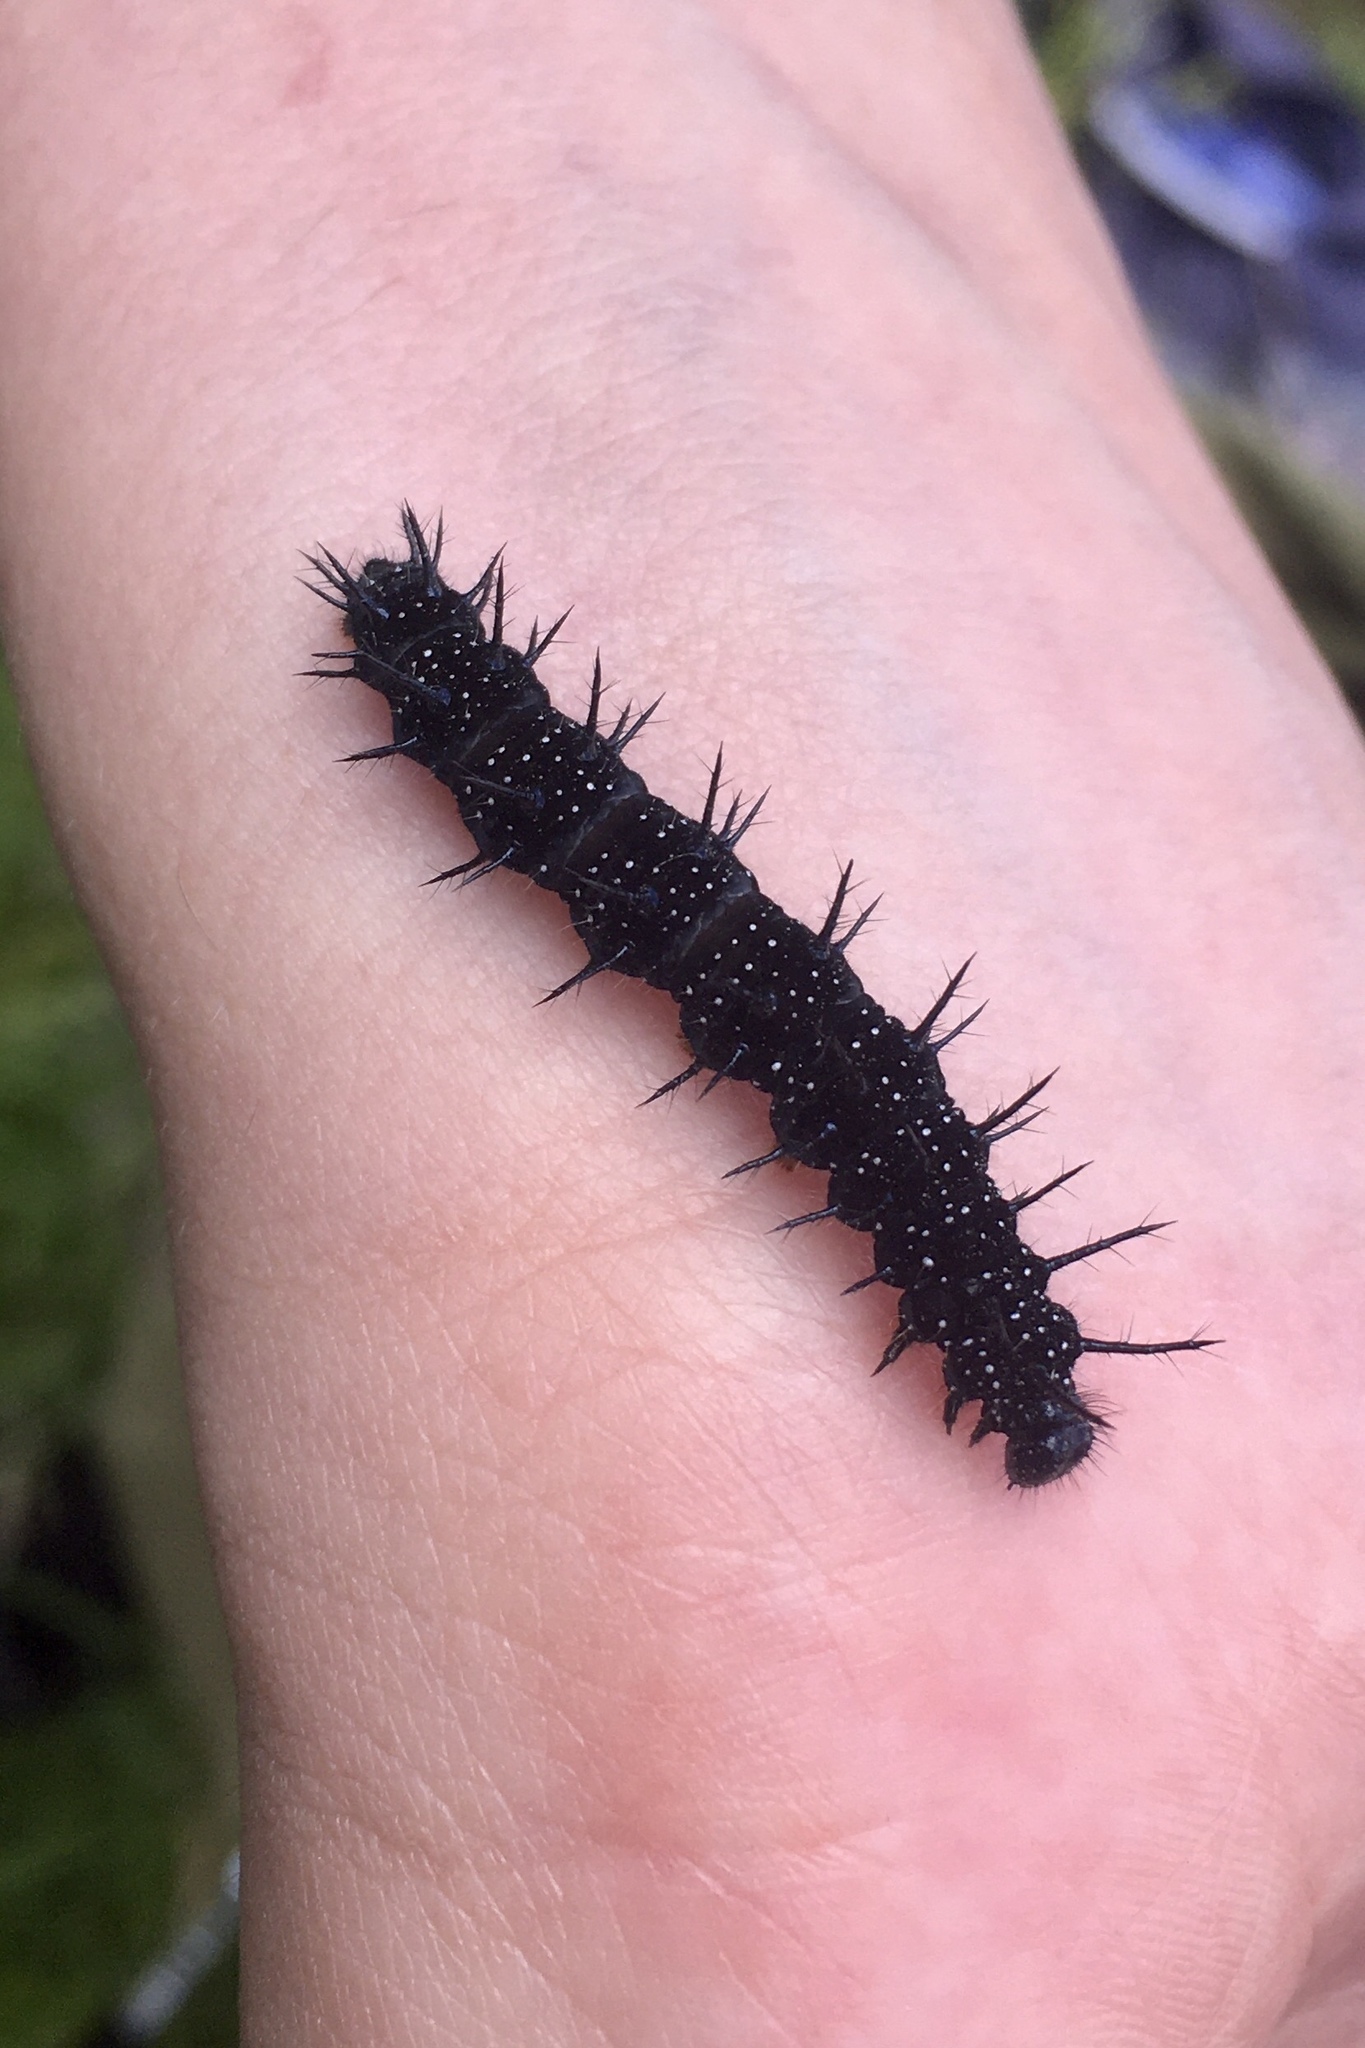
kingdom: Animalia
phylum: Arthropoda
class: Insecta
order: Lepidoptera
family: Nymphalidae
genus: Aglais
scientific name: Aglais io
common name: Peacock
